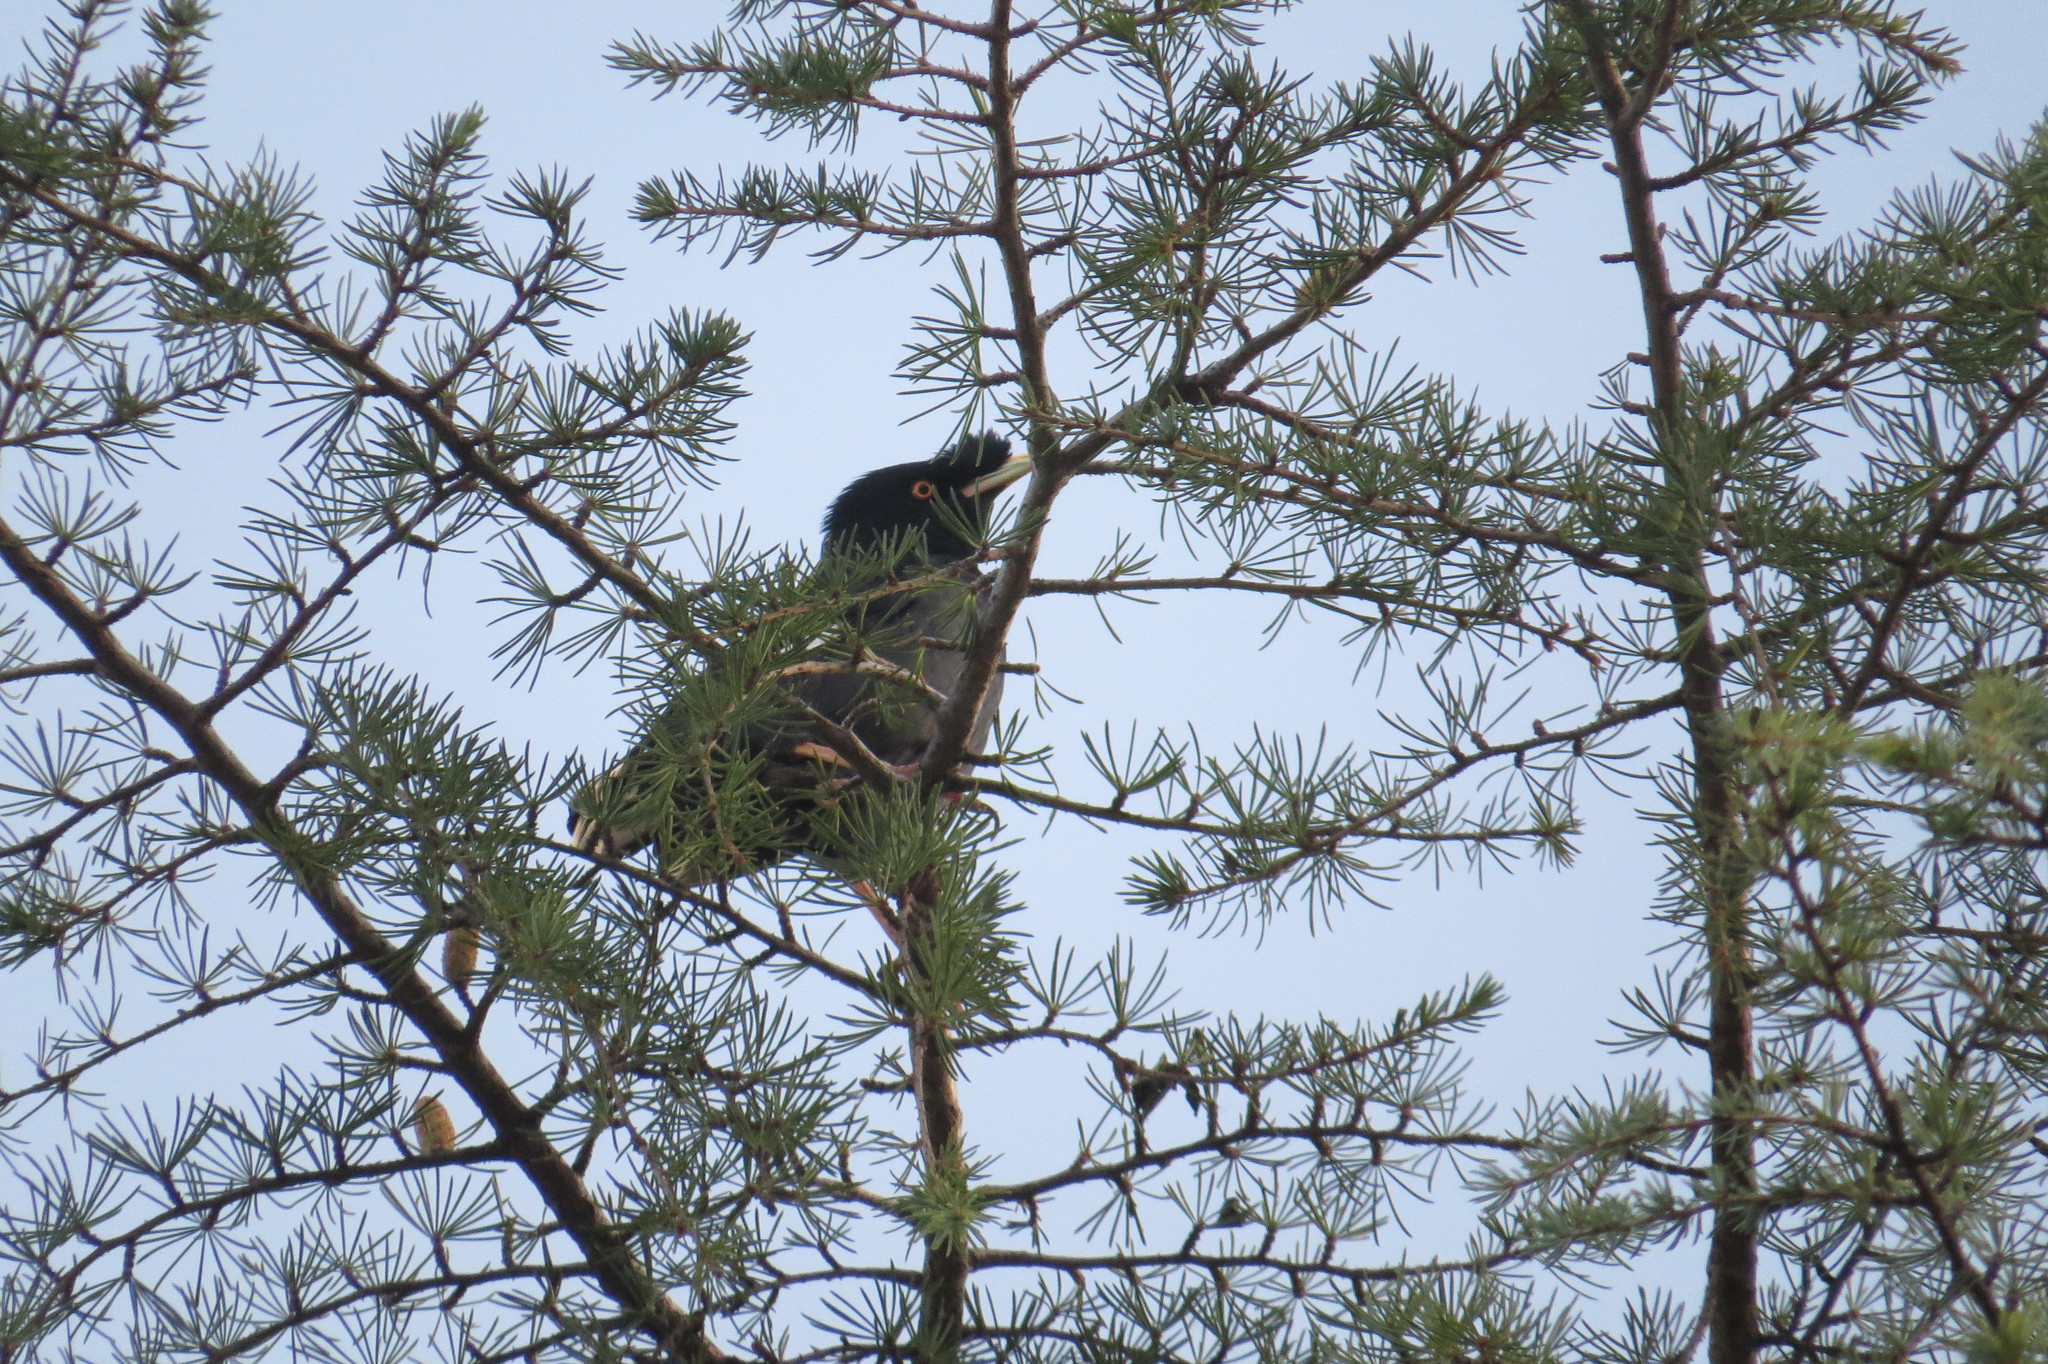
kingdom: Animalia
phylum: Chordata
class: Aves
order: Passeriformes
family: Sturnidae
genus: Acridotheres
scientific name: Acridotheres cristatellus
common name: Crested myna
